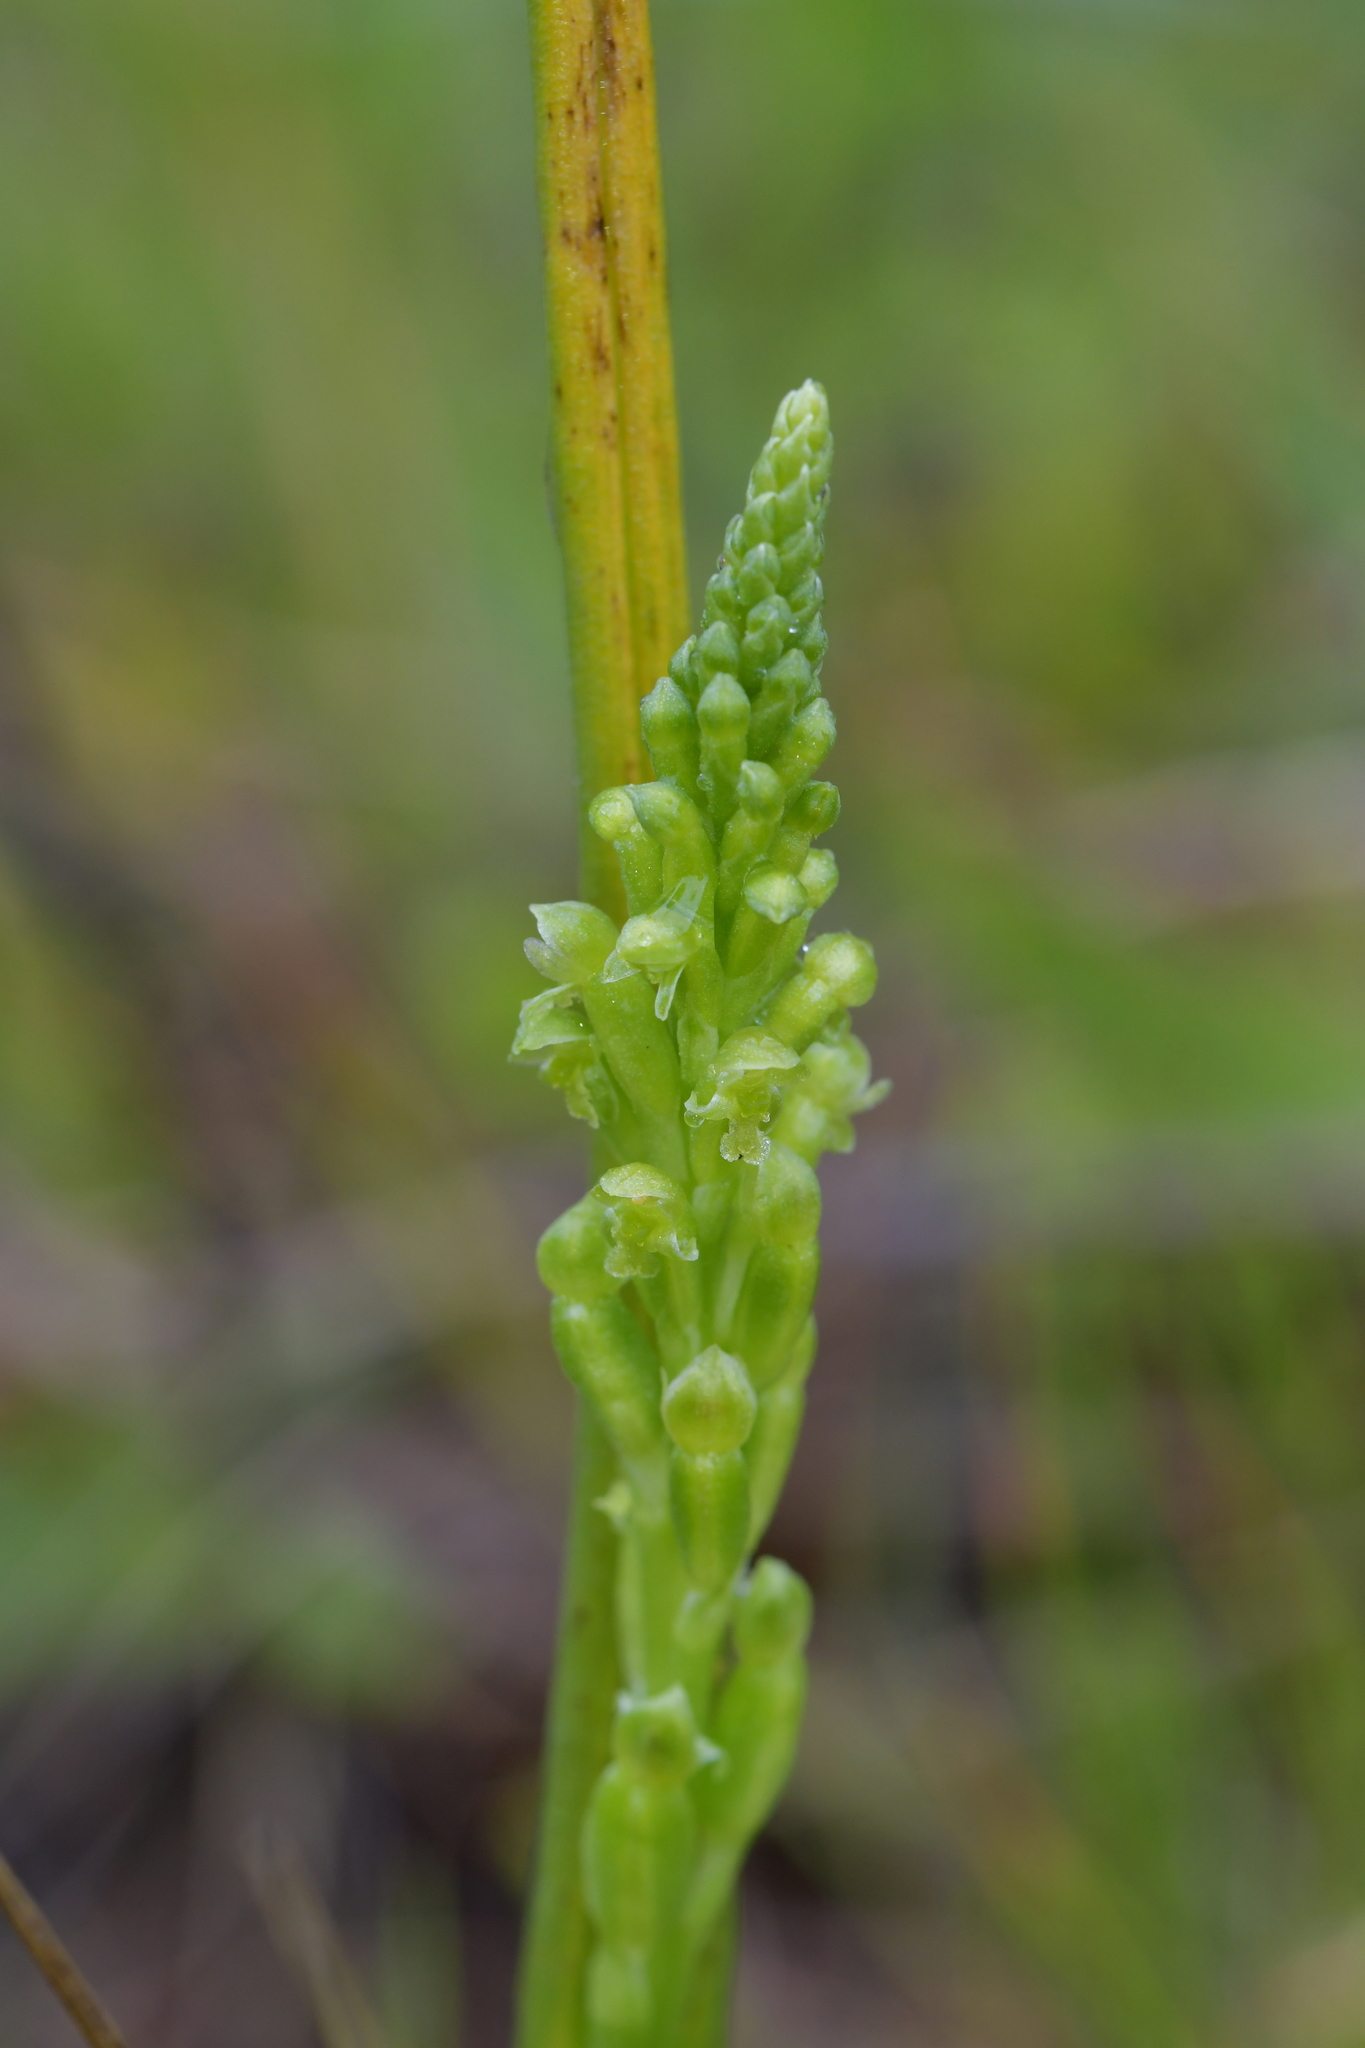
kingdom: Plantae
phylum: Tracheophyta
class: Liliopsida
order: Asparagales
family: Orchidaceae
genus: Microtis
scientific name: Microtis unifolia
